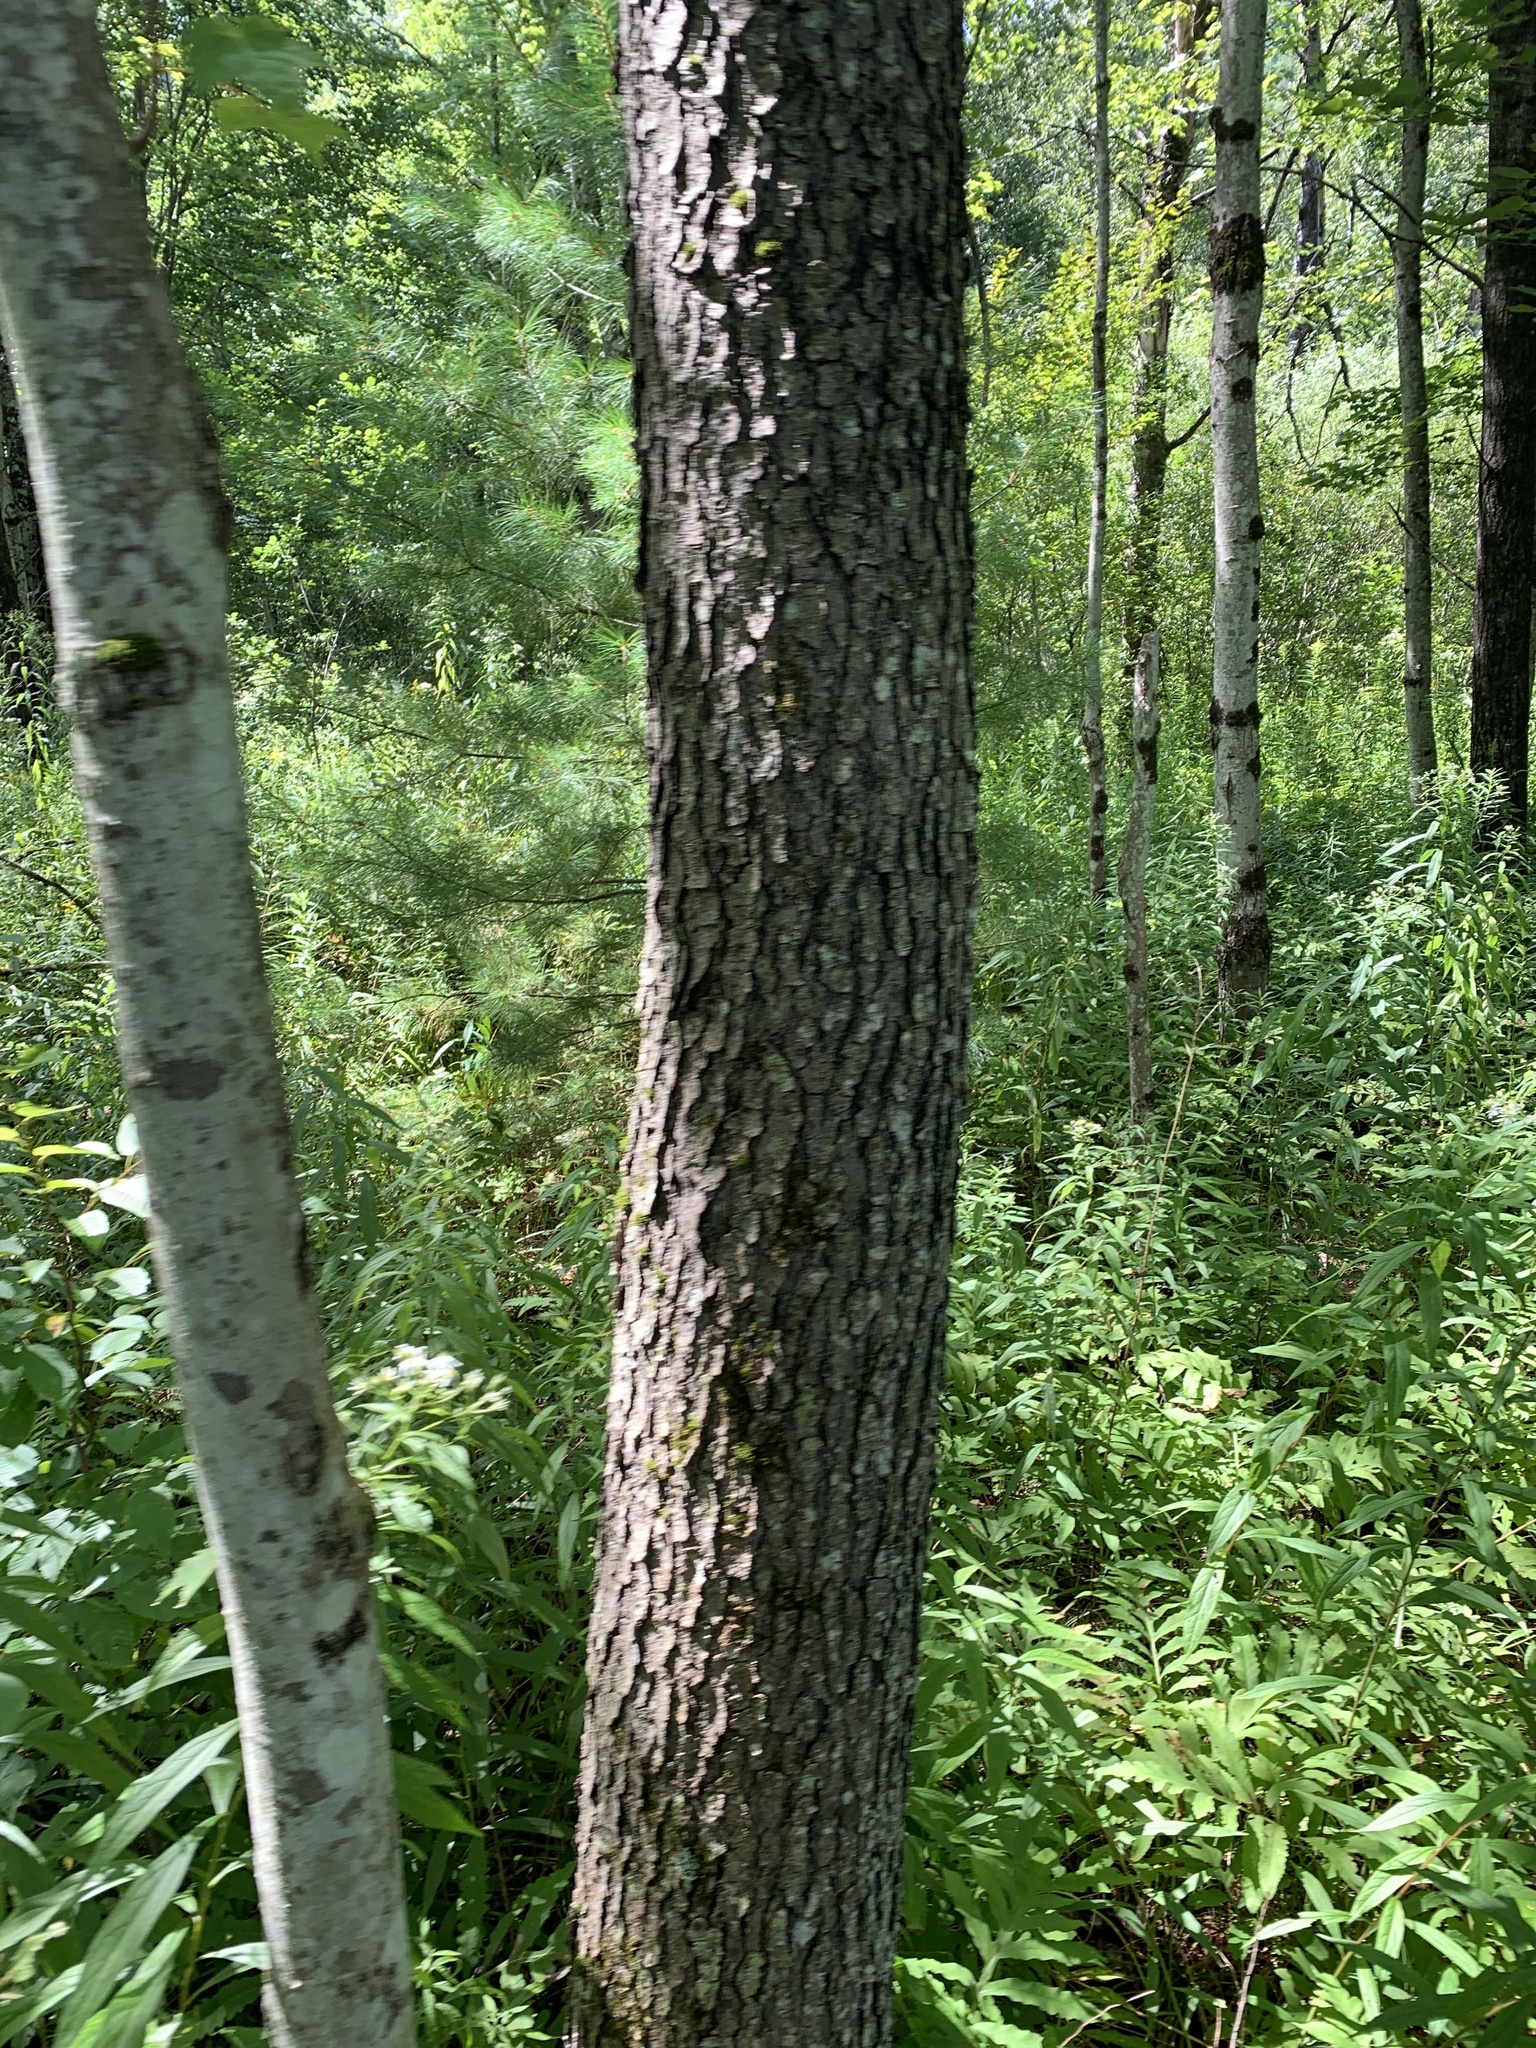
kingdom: Plantae
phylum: Tracheophyta
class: Magnoliopsida
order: Rosales
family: Rosaceae
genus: Prunus
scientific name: Prunus serotina
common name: Black cherry
